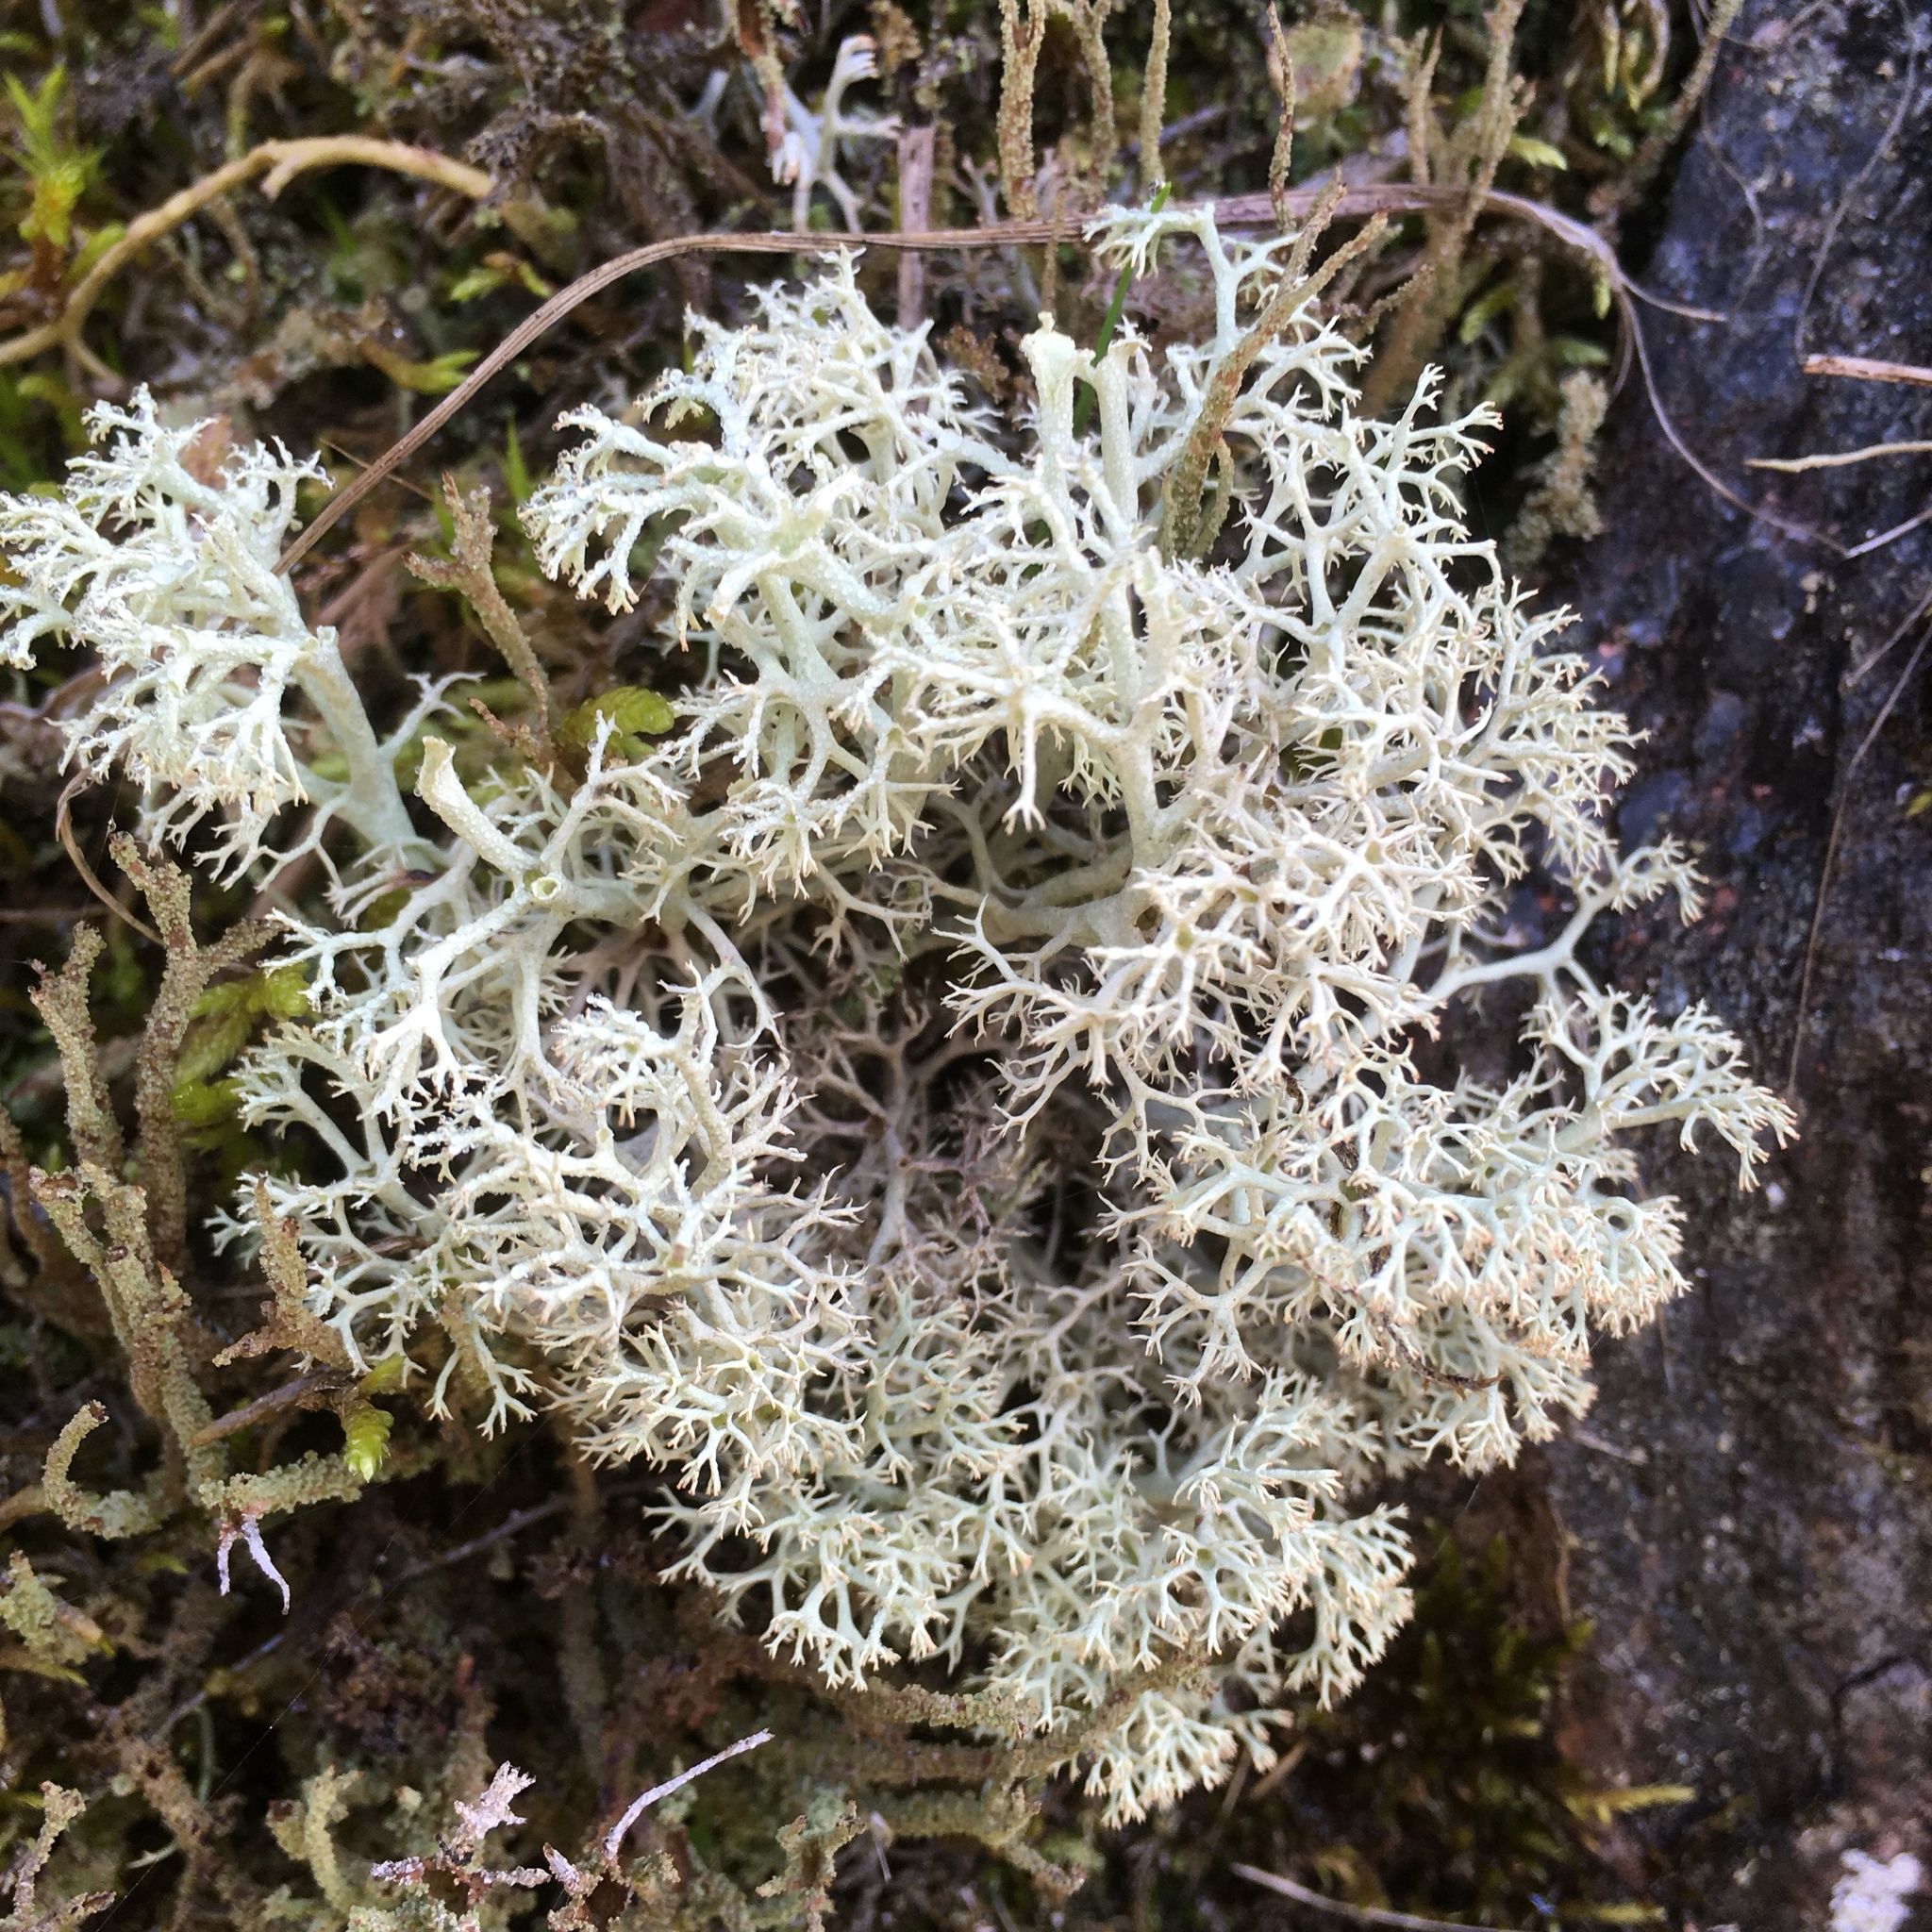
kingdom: Fungi
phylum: Ascomycota
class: Lecanoromycetes
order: Lecanorales
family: Cladoniaceae
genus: Cladonia
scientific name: Cladonia rangiferina
